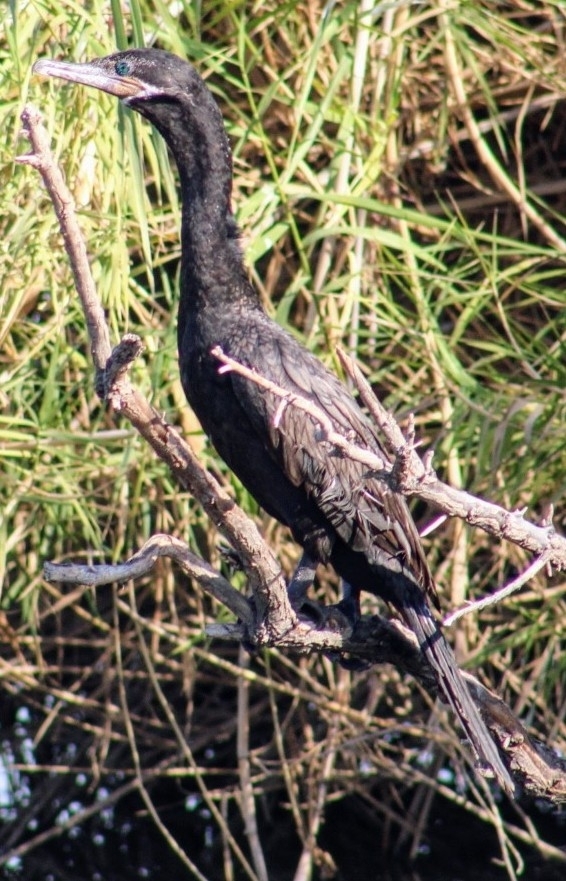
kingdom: Animalia
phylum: Chordata
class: Aves
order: Suliformes
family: Phalacrocoracidae
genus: Phalacrocorax
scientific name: Phalacrocorax brasilianus
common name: Neotropic cormorant
